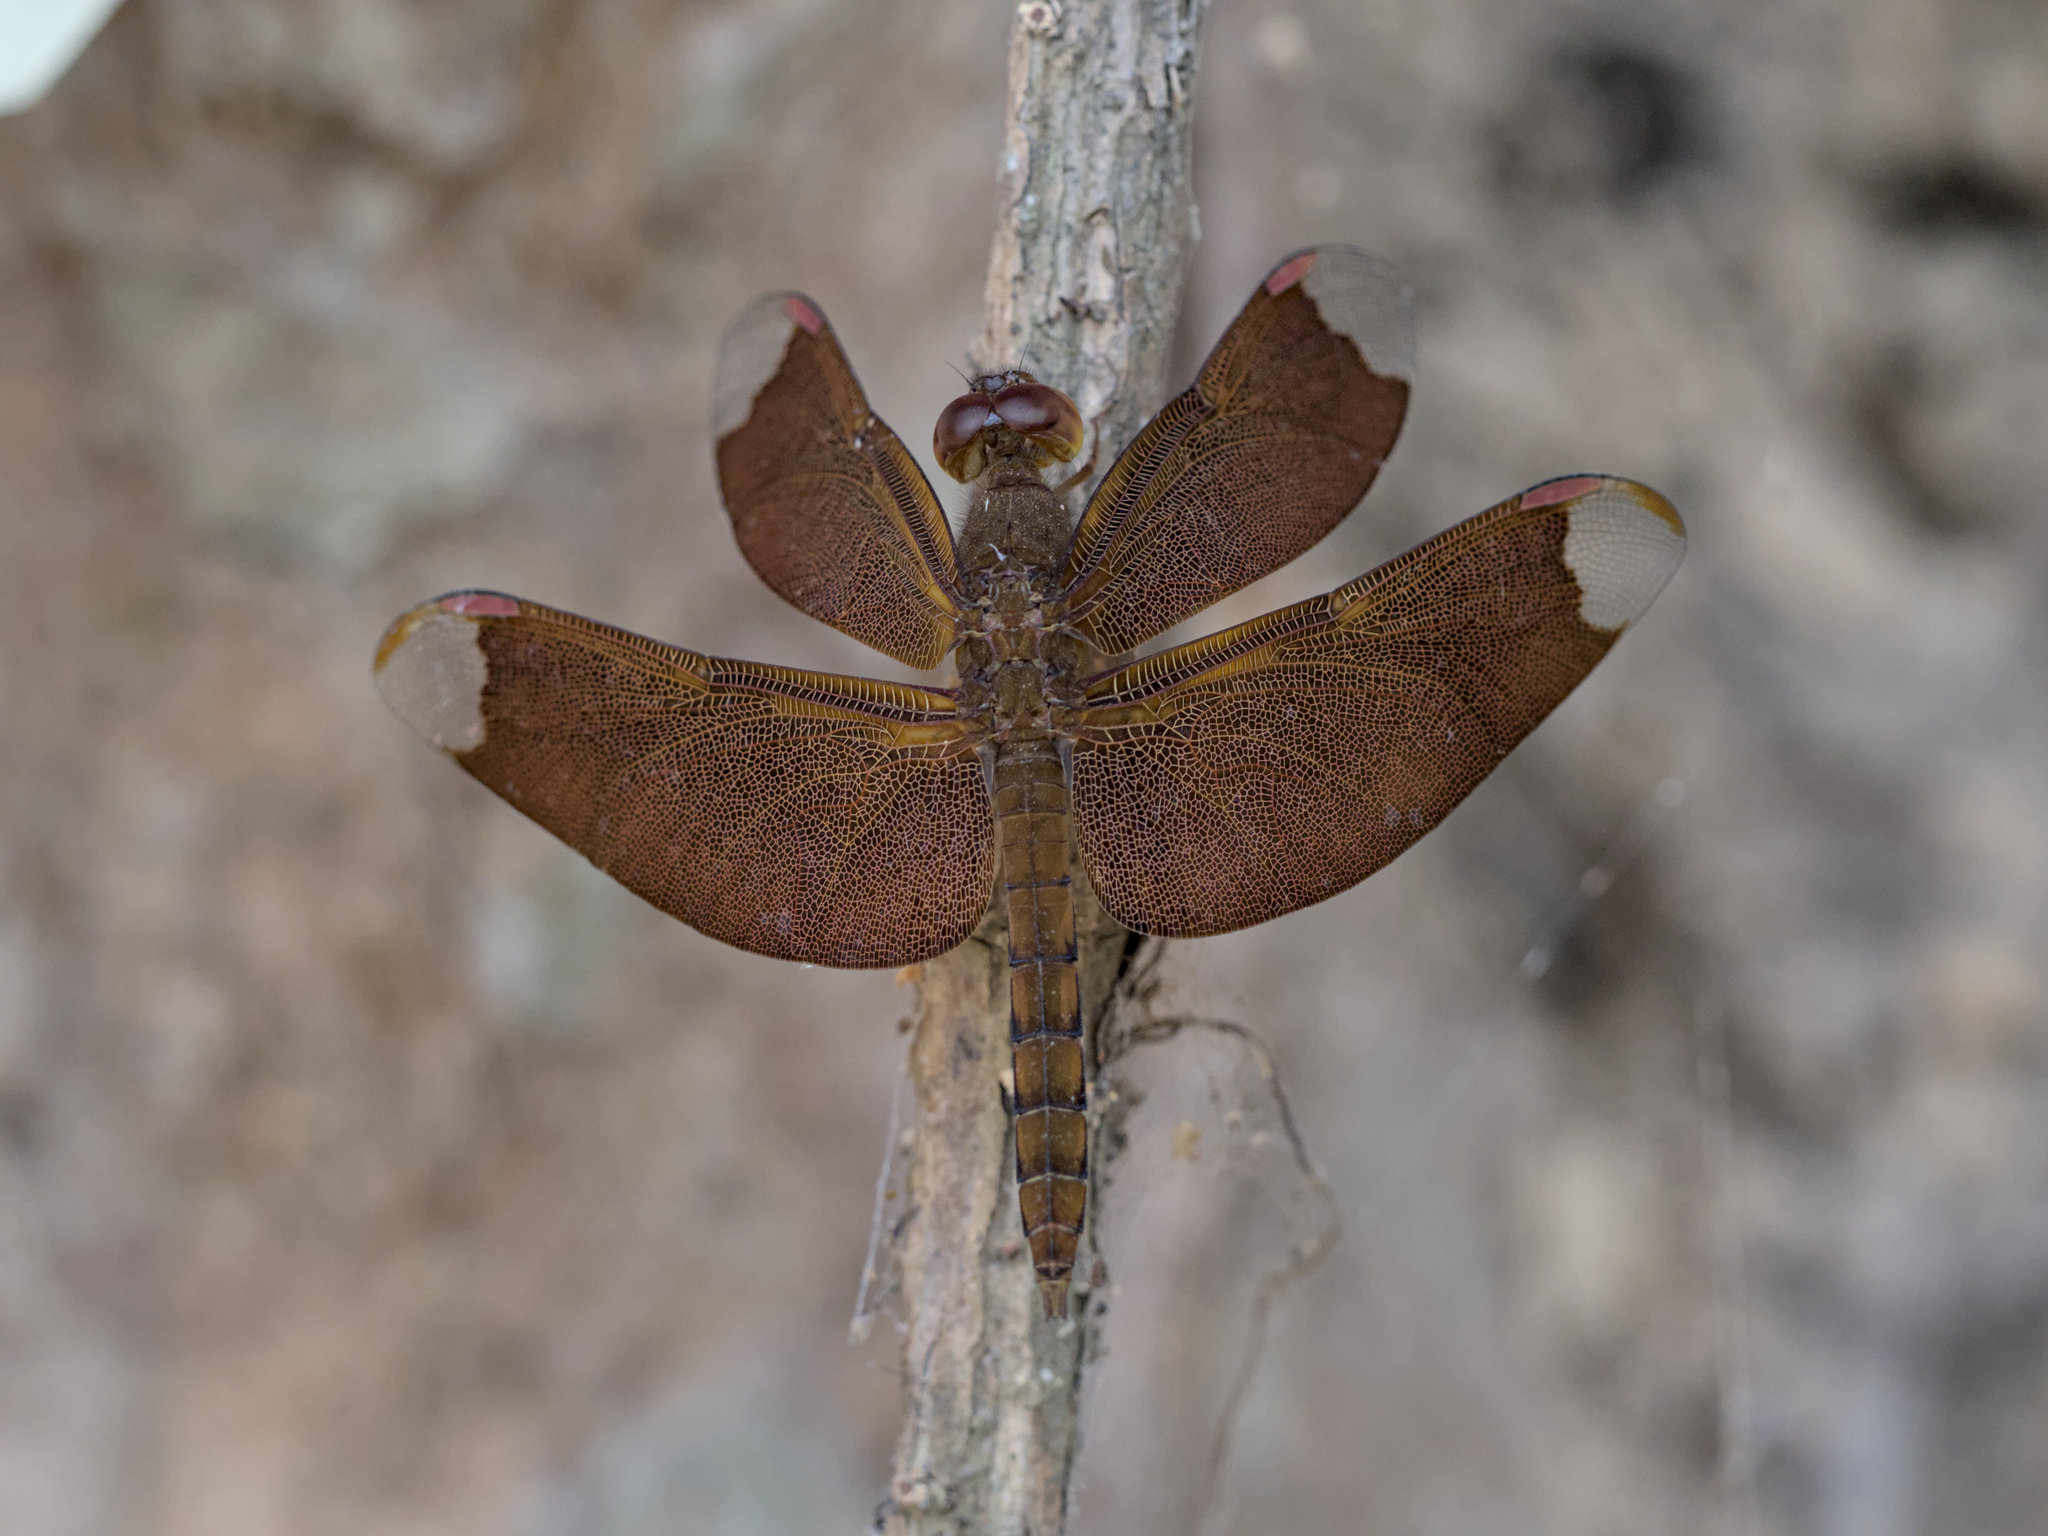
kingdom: Animalia
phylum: Arthropoda
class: Insecta
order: Odonata
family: Libellulidae
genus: Neurothemis
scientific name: Neurothemis fulvia
